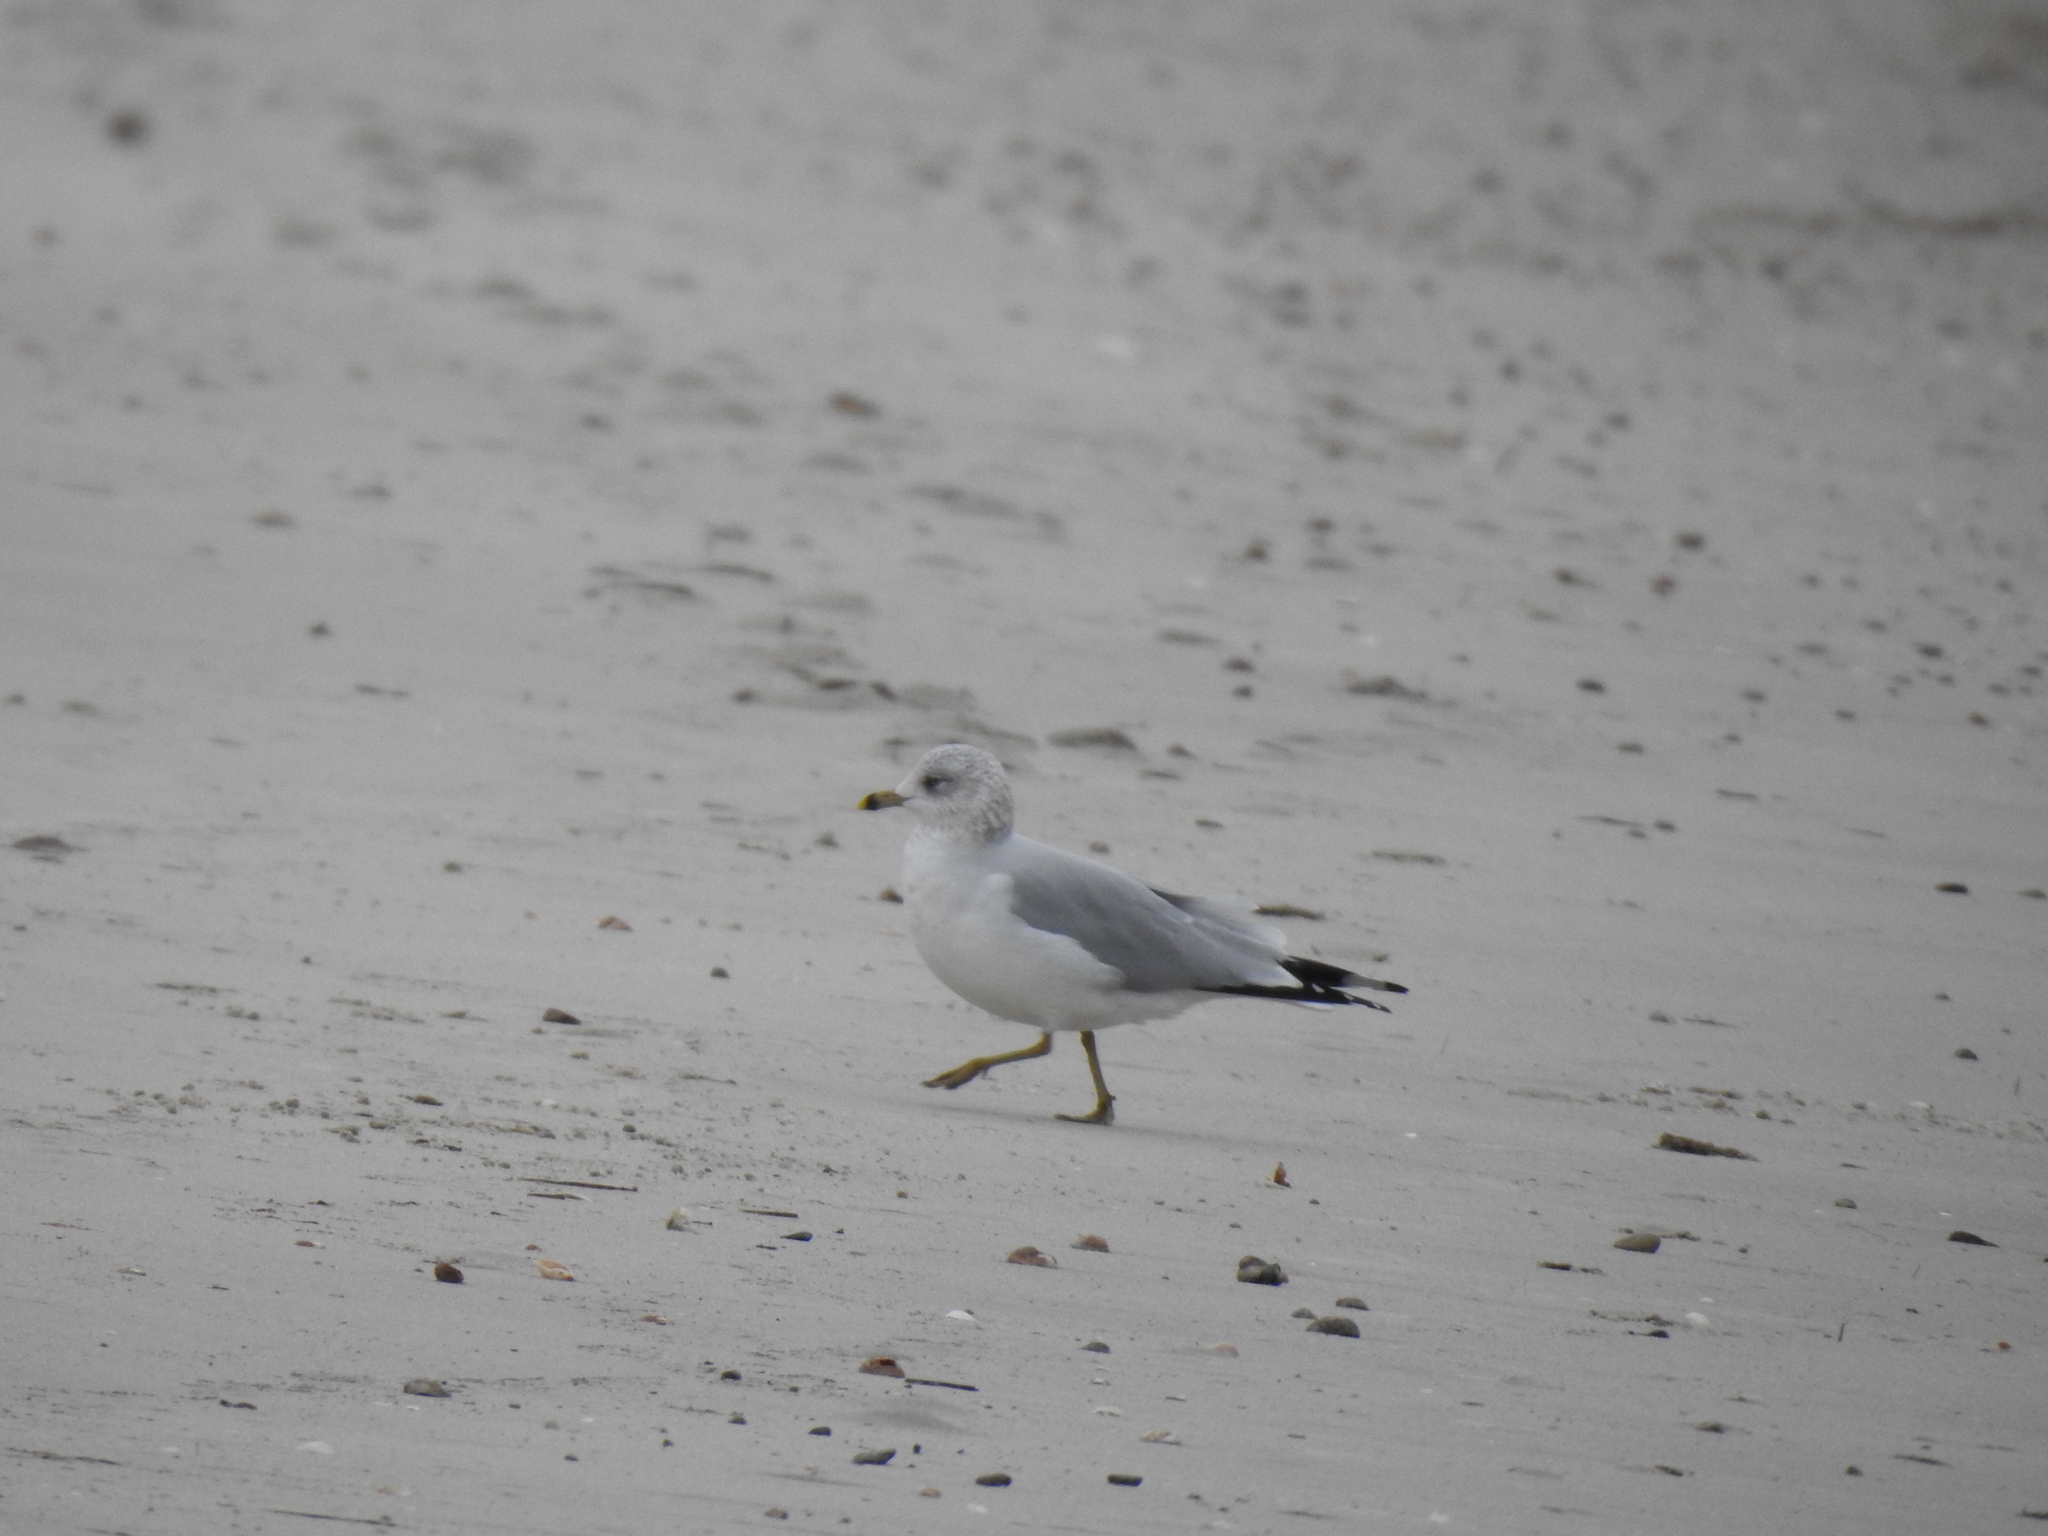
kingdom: Animalia
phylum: Chordata
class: Aves
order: Charadriiformes
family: Laridae
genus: Larus
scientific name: Larus delawarensis
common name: Ring-billed gull
